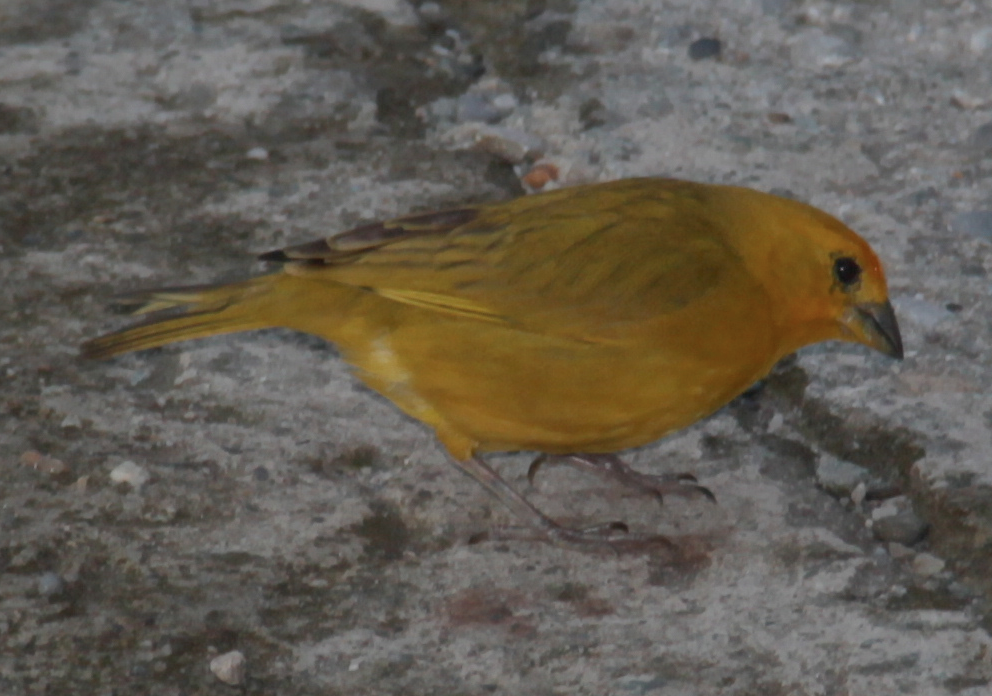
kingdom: Animalia
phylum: Chordata
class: Aves
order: Passeriformes
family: Thraupidae
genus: Sicalis
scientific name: Sicalis flaveola
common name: Saffron finch
